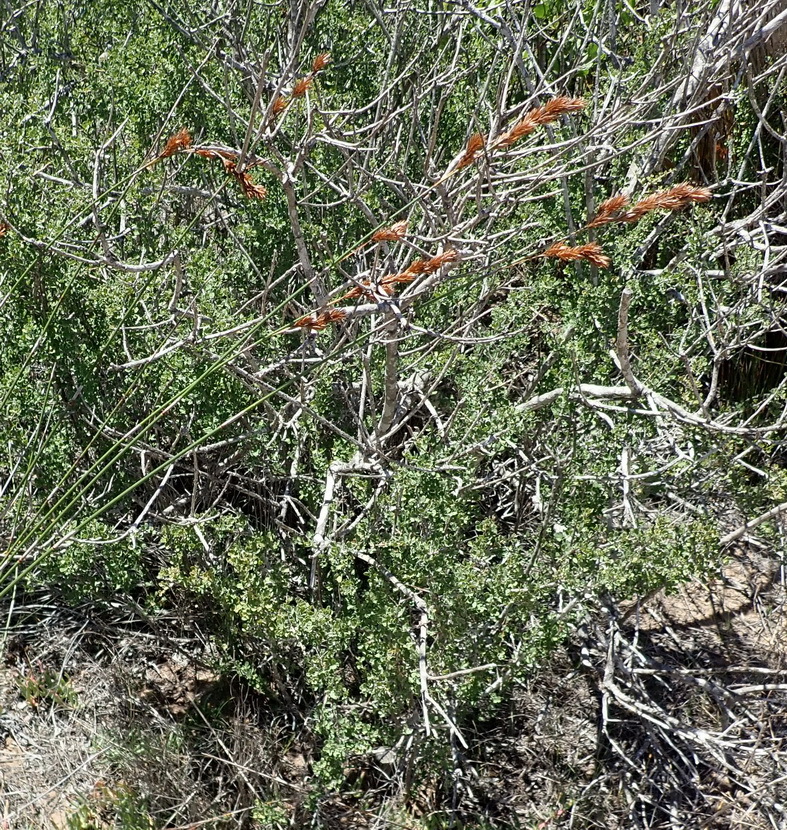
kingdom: Plantae
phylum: Tracheophyta
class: Magnoliopsida
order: Fabales
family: Fabaceae
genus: Indigofera
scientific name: Indigofera nigromontana
